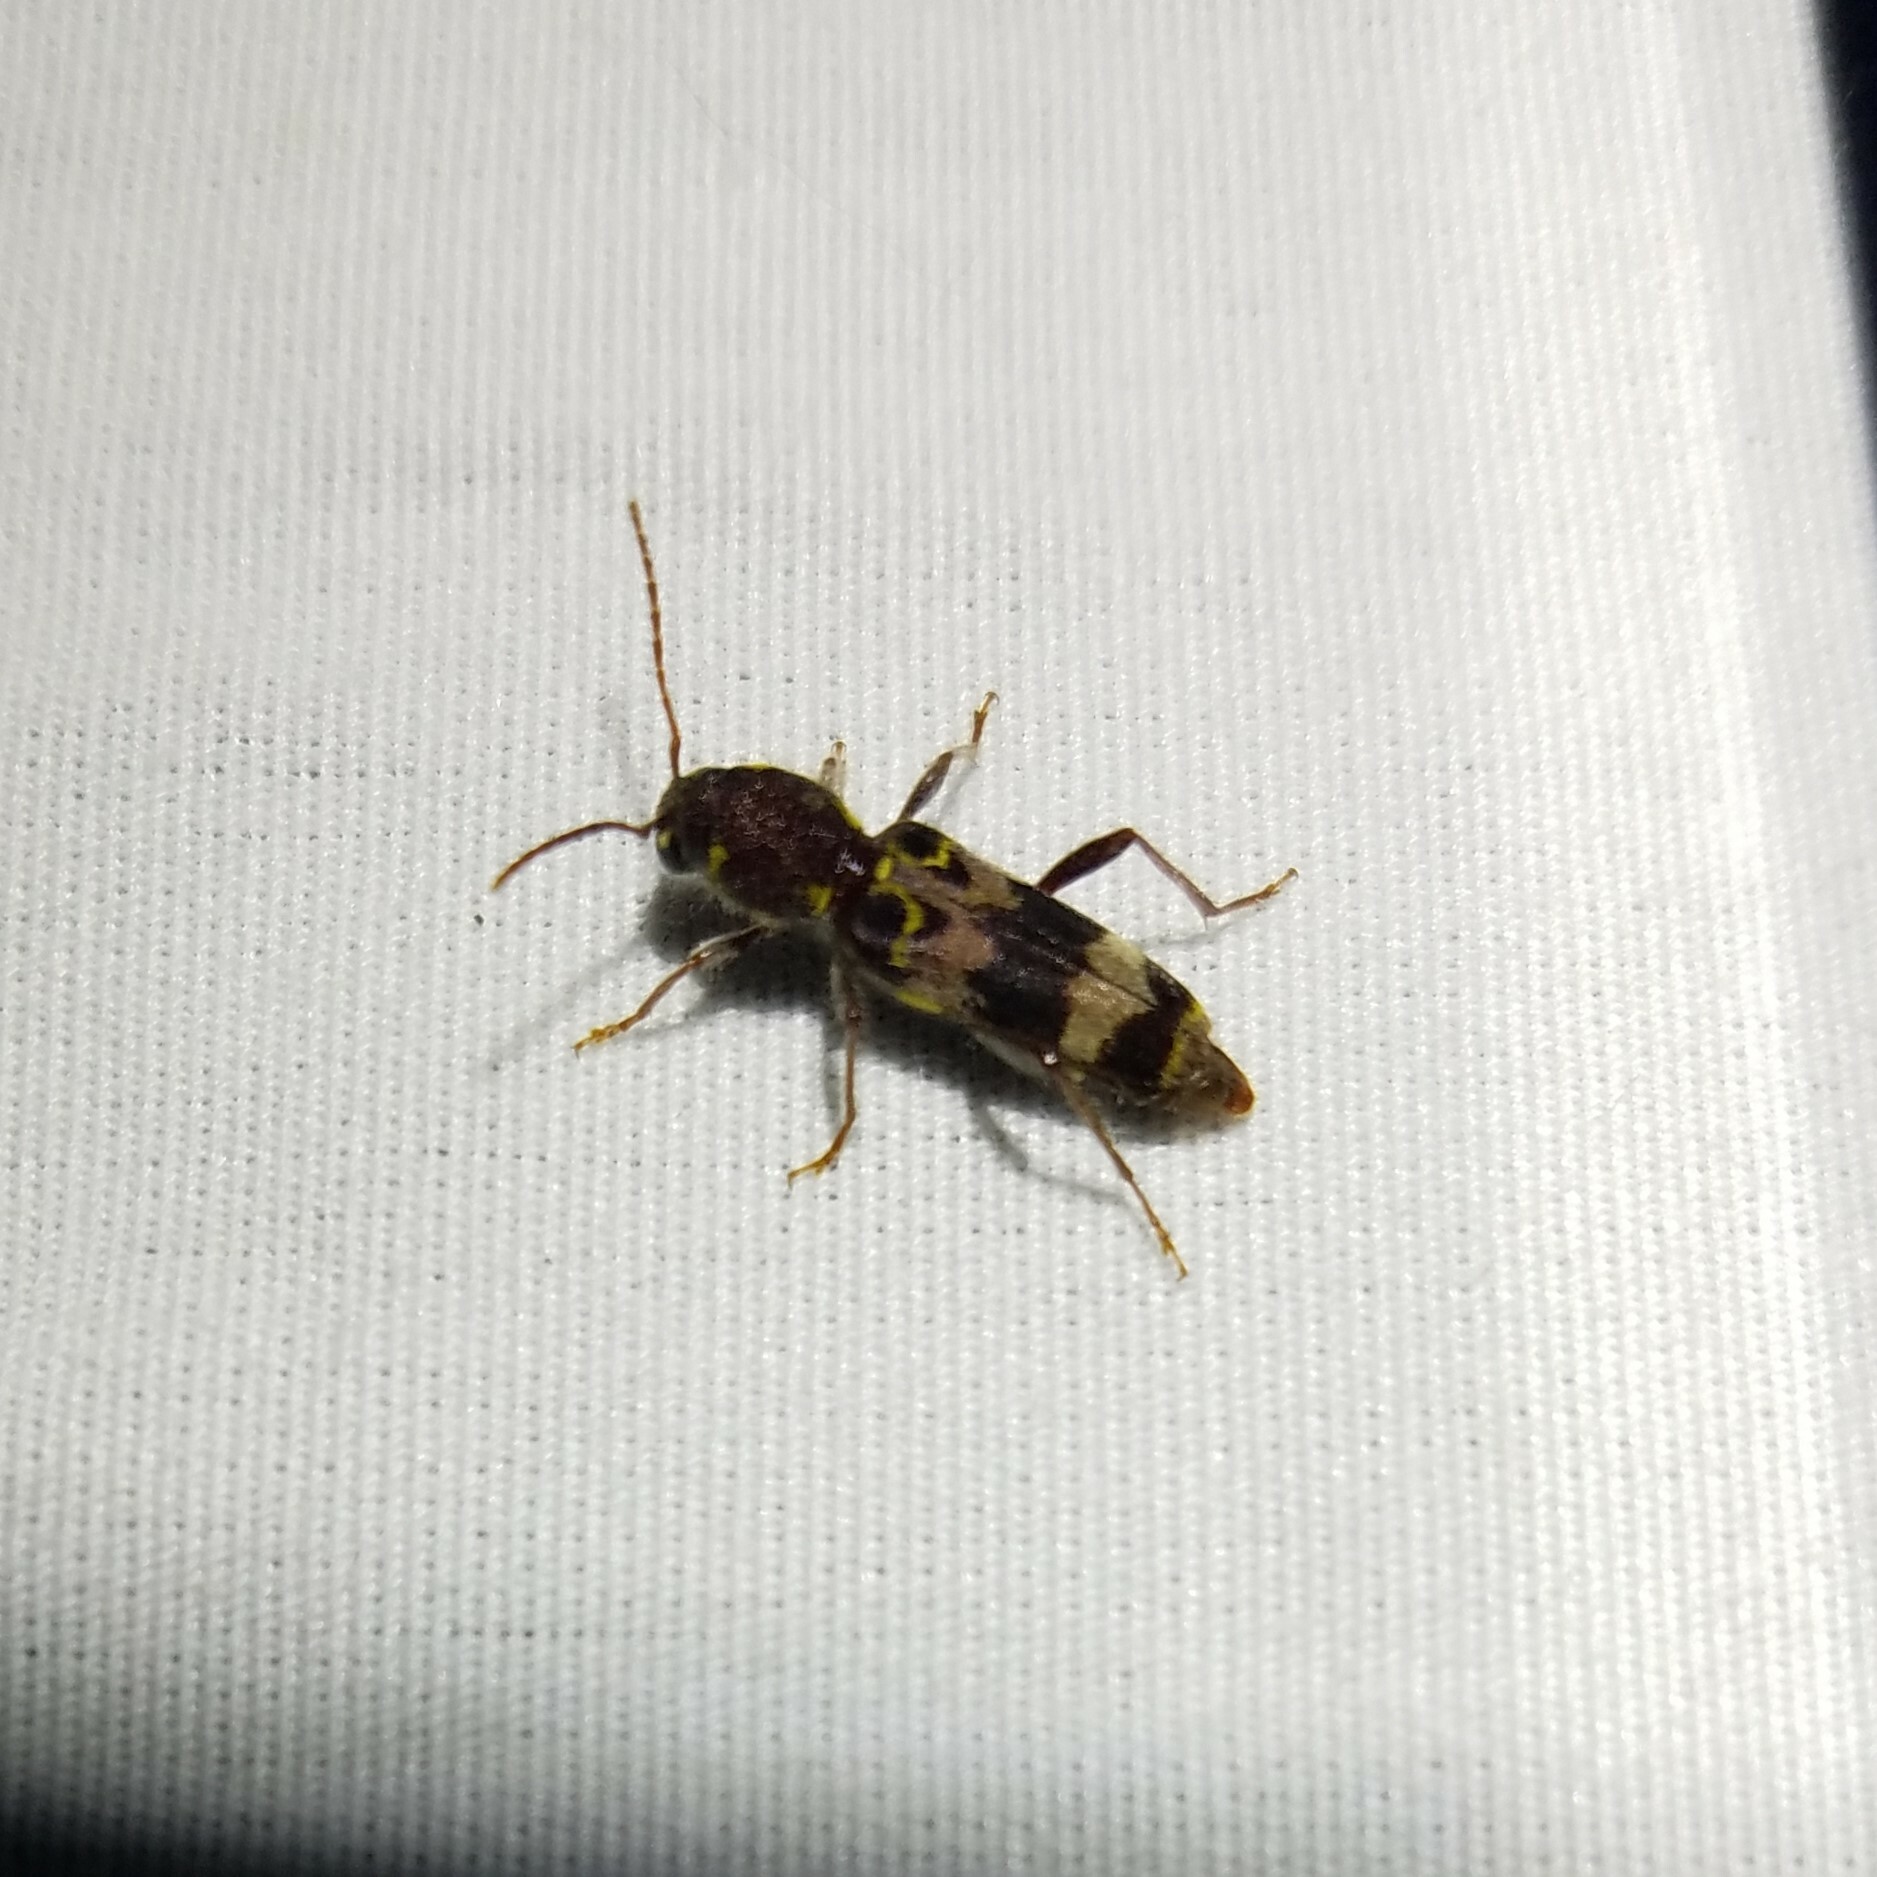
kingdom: Animalia
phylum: Arthropoda
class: Insecta
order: Coleoptera
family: Cerambycidae
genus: Xylotrechus
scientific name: Xylotrechus colonus
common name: Long-horned beetle
